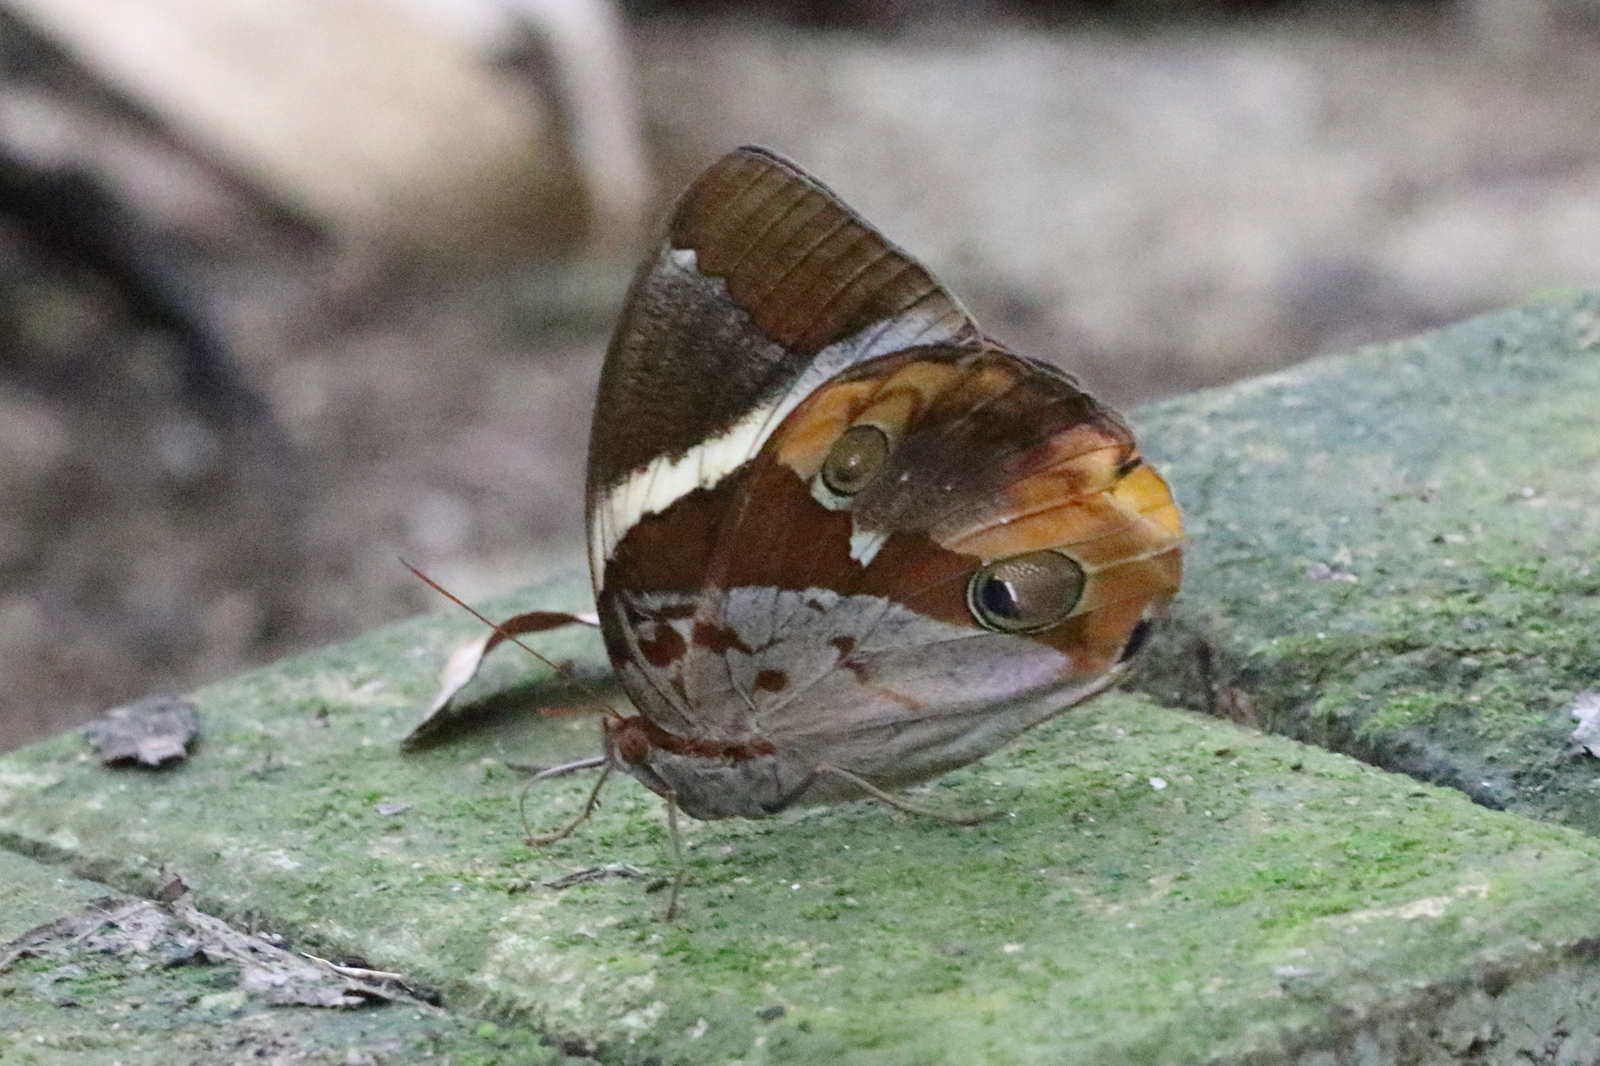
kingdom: Animalia
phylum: Arthropoda
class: Insecta
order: Lepidoptera
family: Nymphalidae
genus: Thauria
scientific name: Thauria aliris
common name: Tufted jungle king
